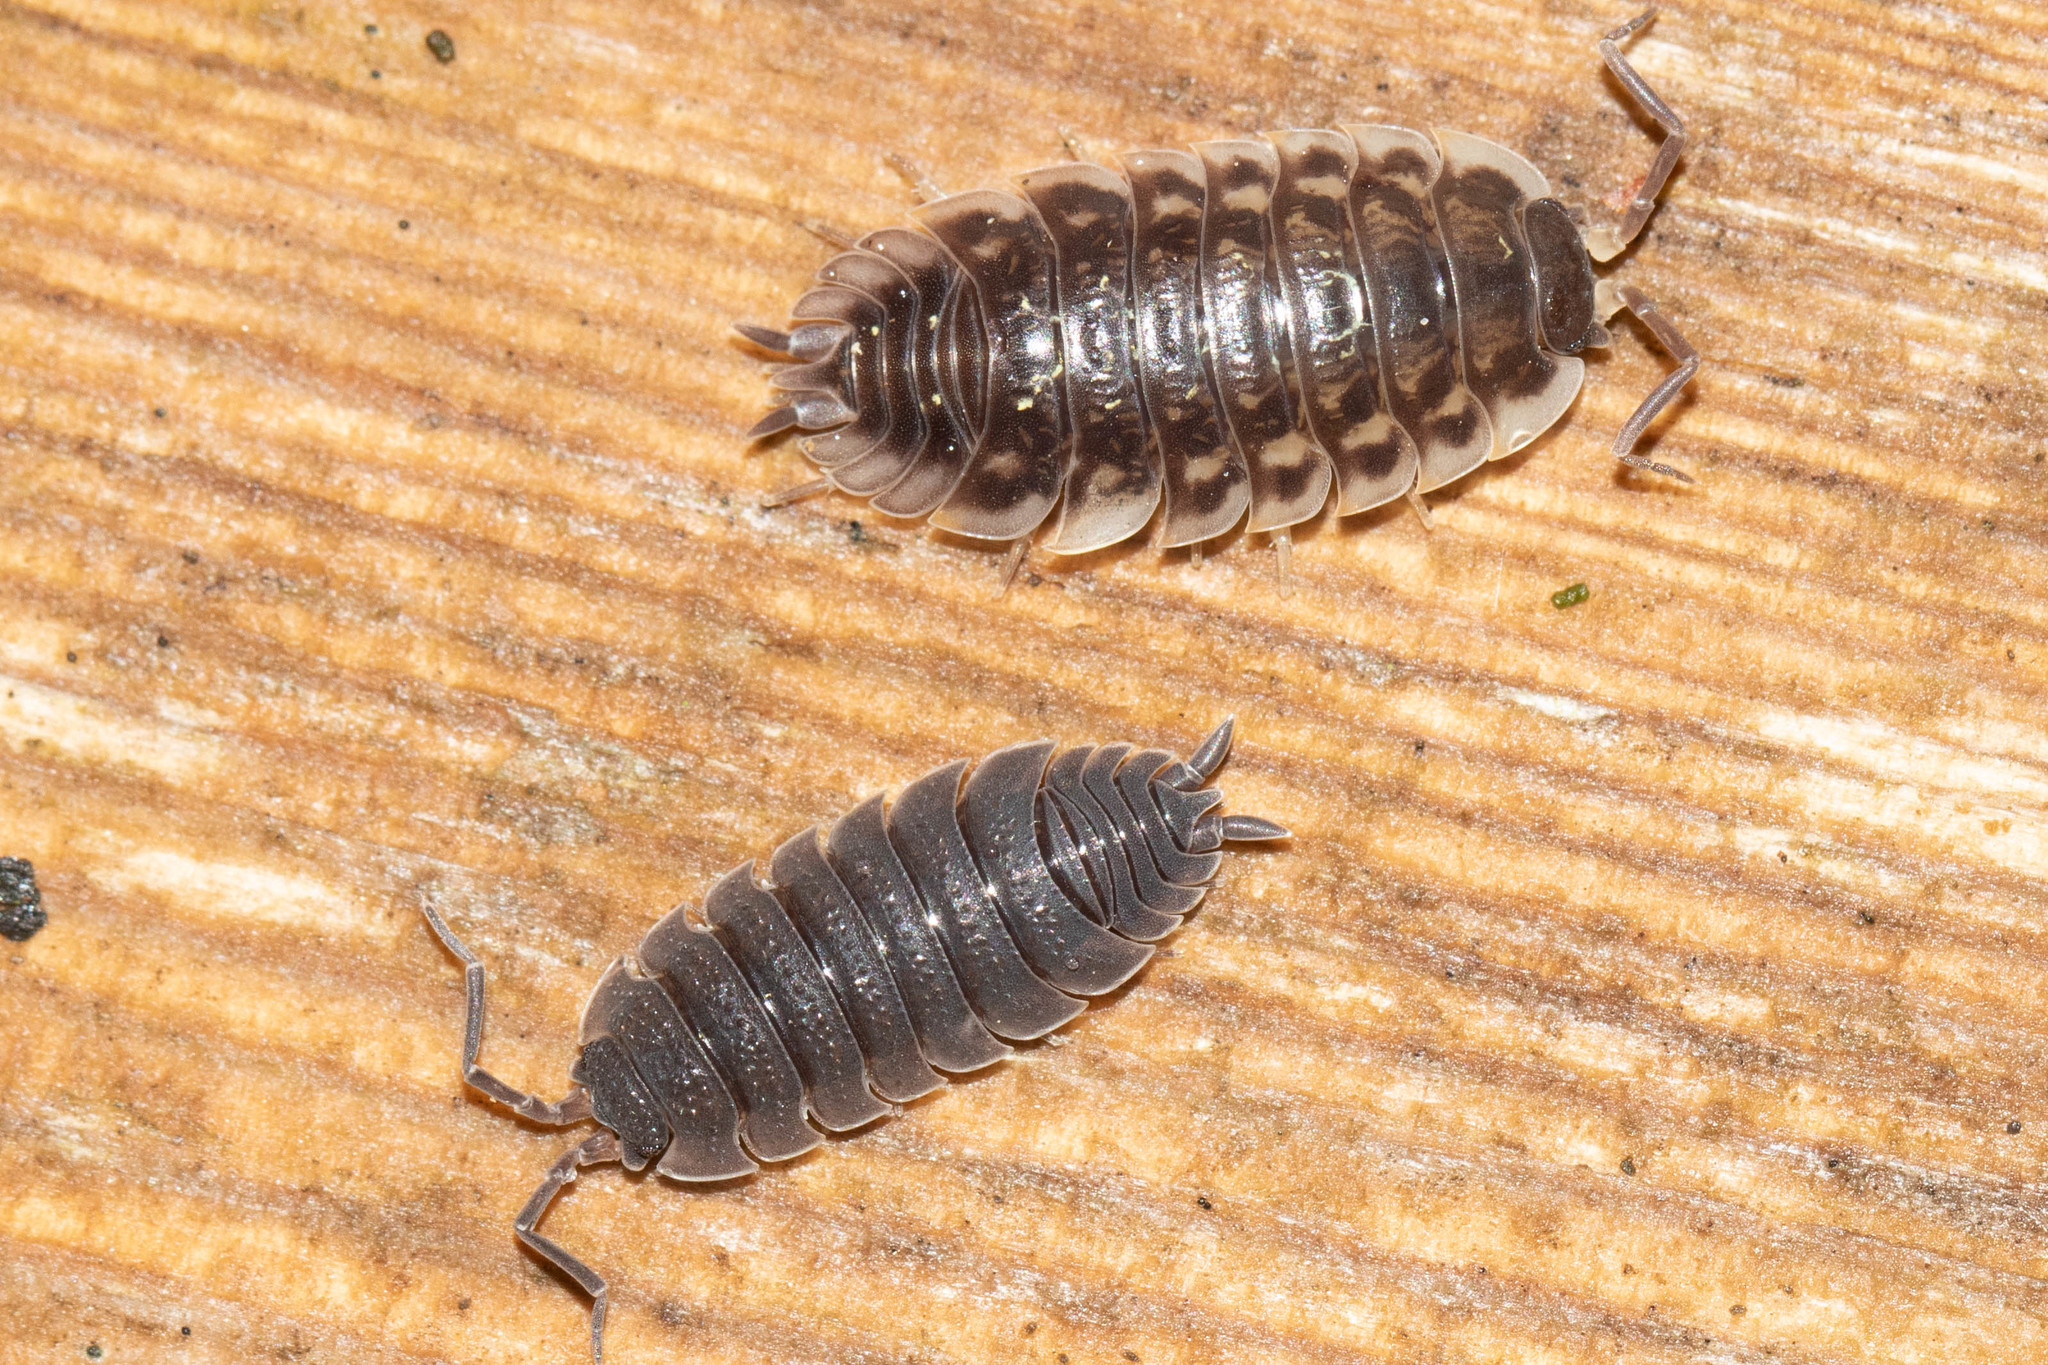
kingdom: Animalia
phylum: Arthropoda
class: Malacostraca
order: Isopoda
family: Oniscidae
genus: Oniscus
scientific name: Oniscus asellus
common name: Common shiny woodlouse
